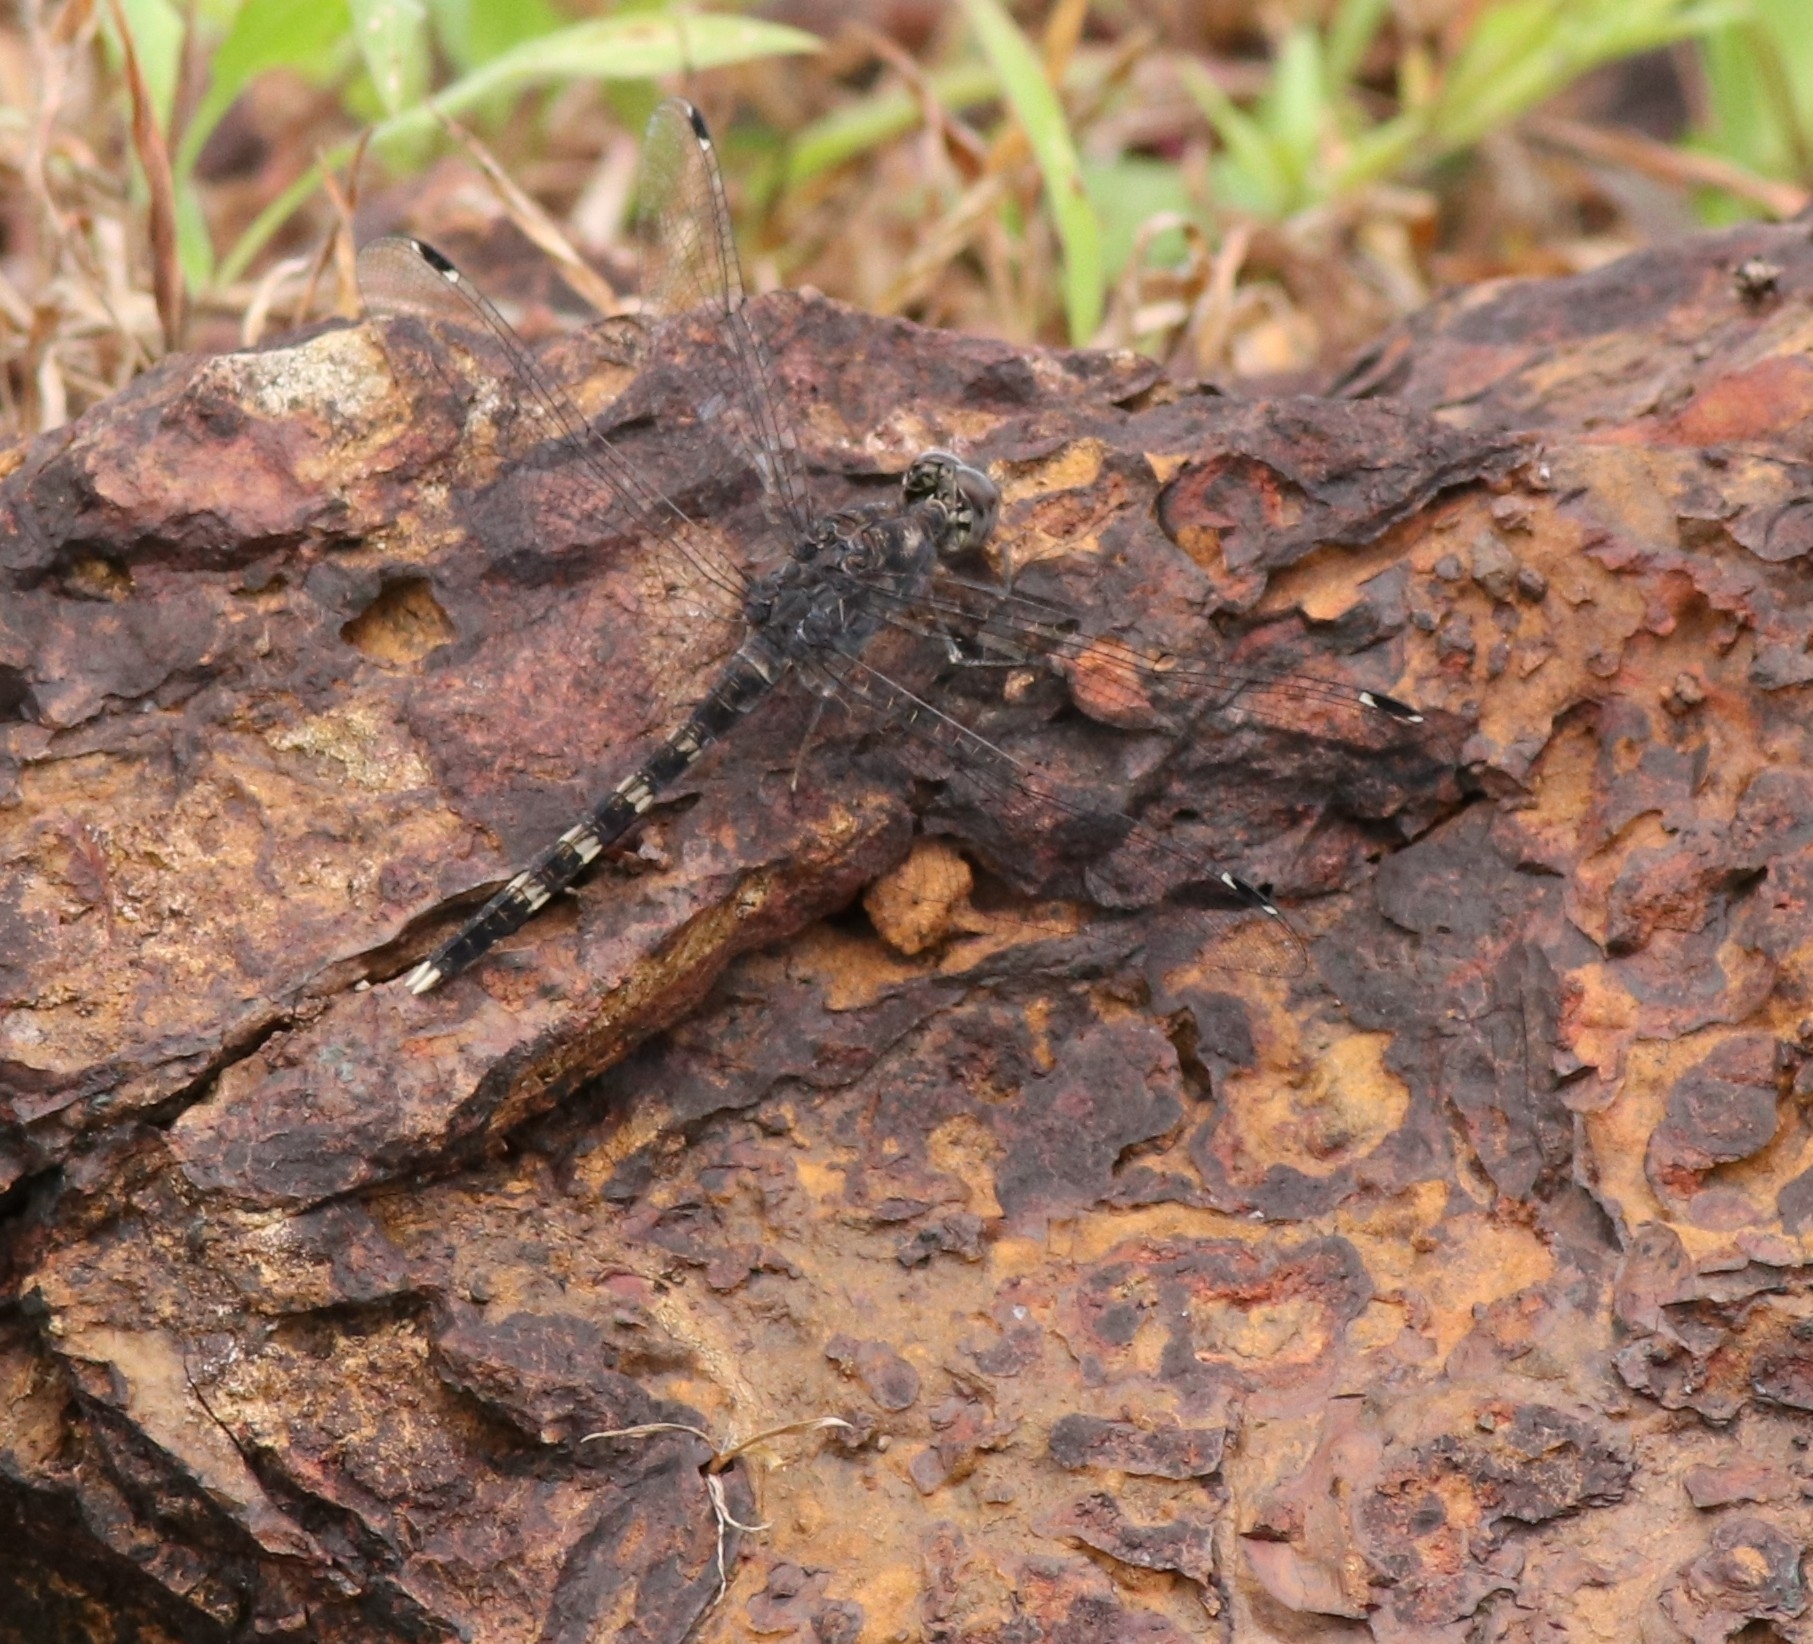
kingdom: Animalia
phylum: Arthropoda
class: Insecta
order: Odonata
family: Libellulidae
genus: Bradinopyga
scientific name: Bradinopyga geminata
